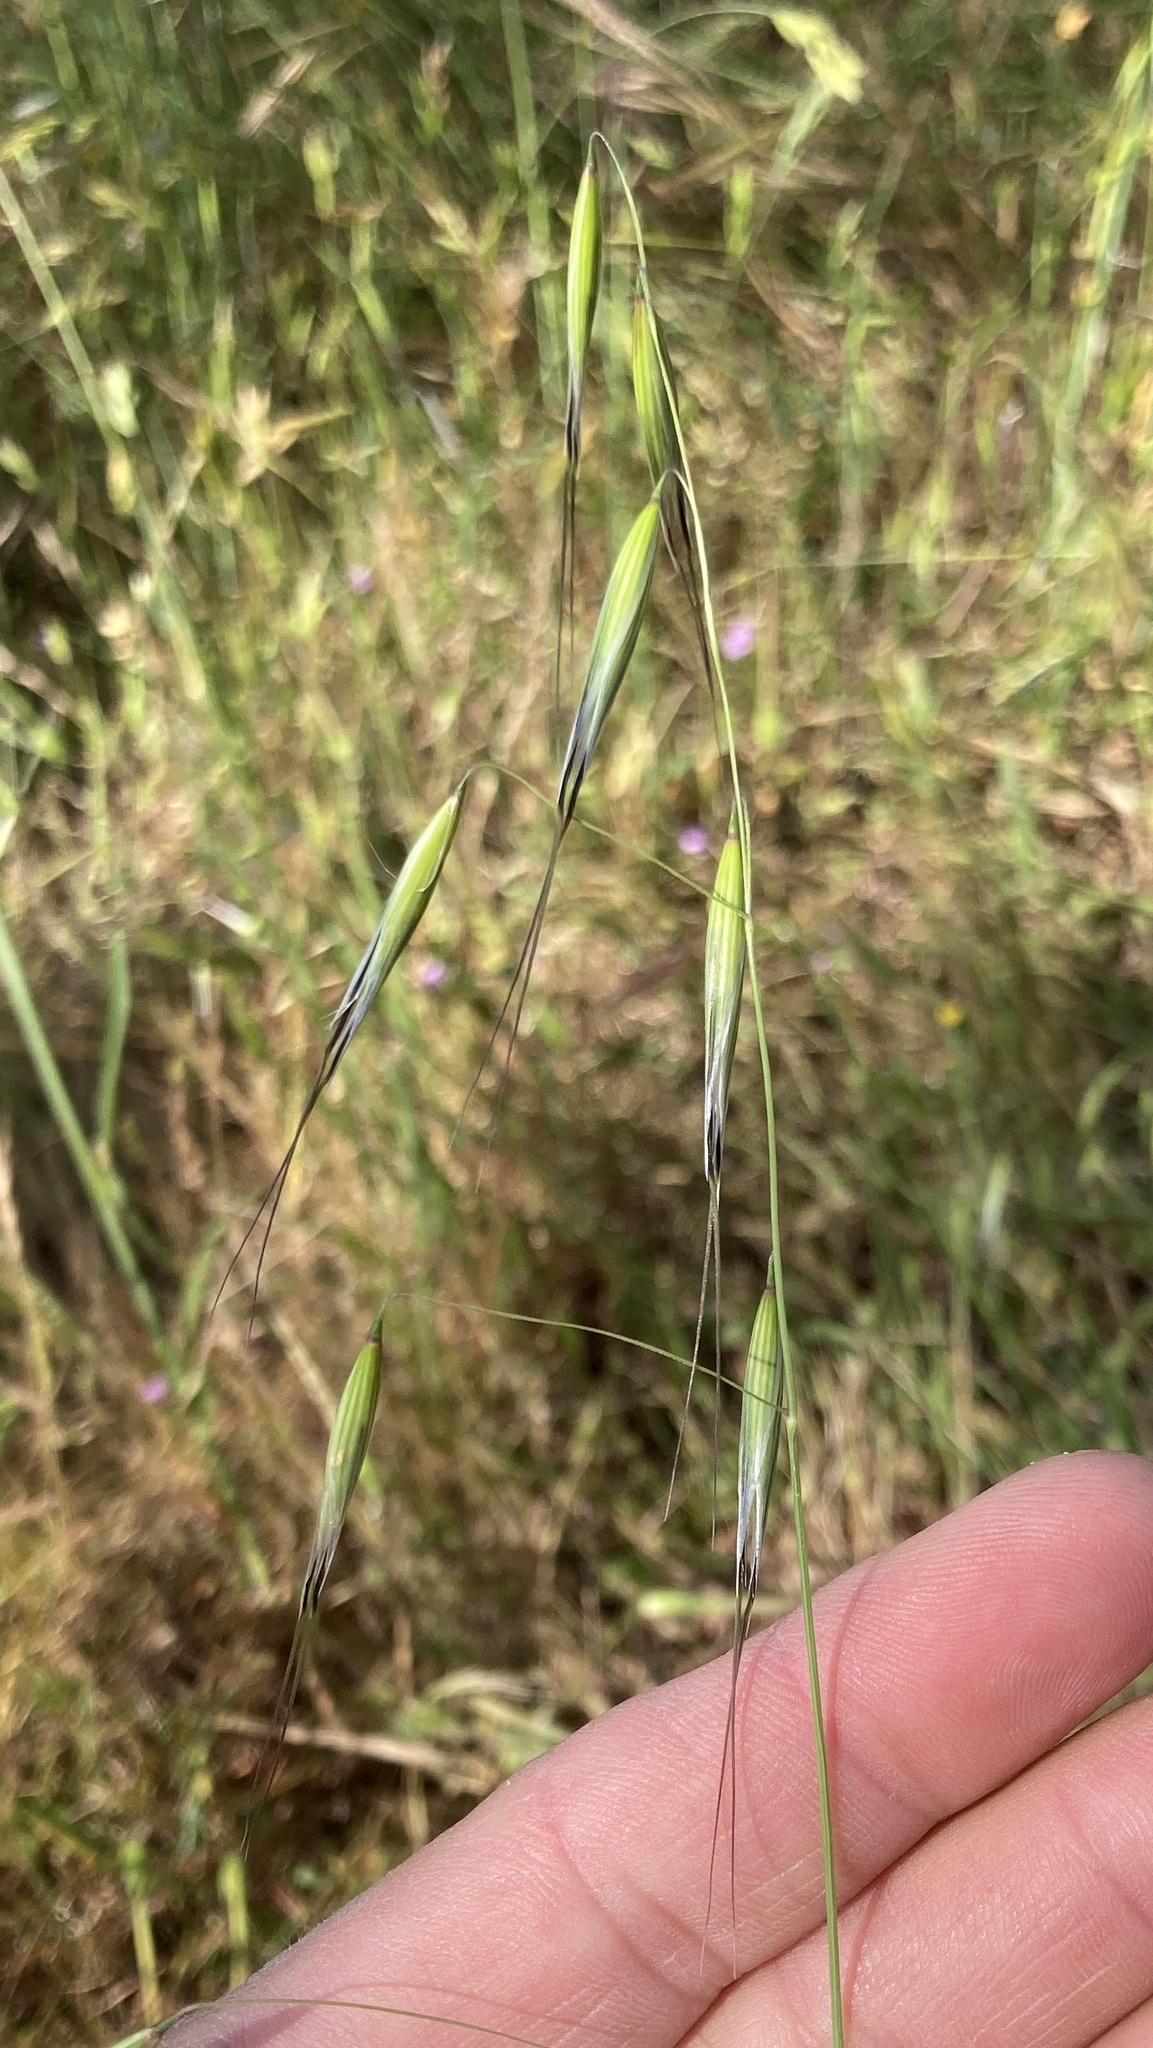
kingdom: Plantae
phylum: Tracheophyta
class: Liliopsida
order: Poales
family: Poaceae
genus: Avena
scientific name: Avena barbata
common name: Slender oat
